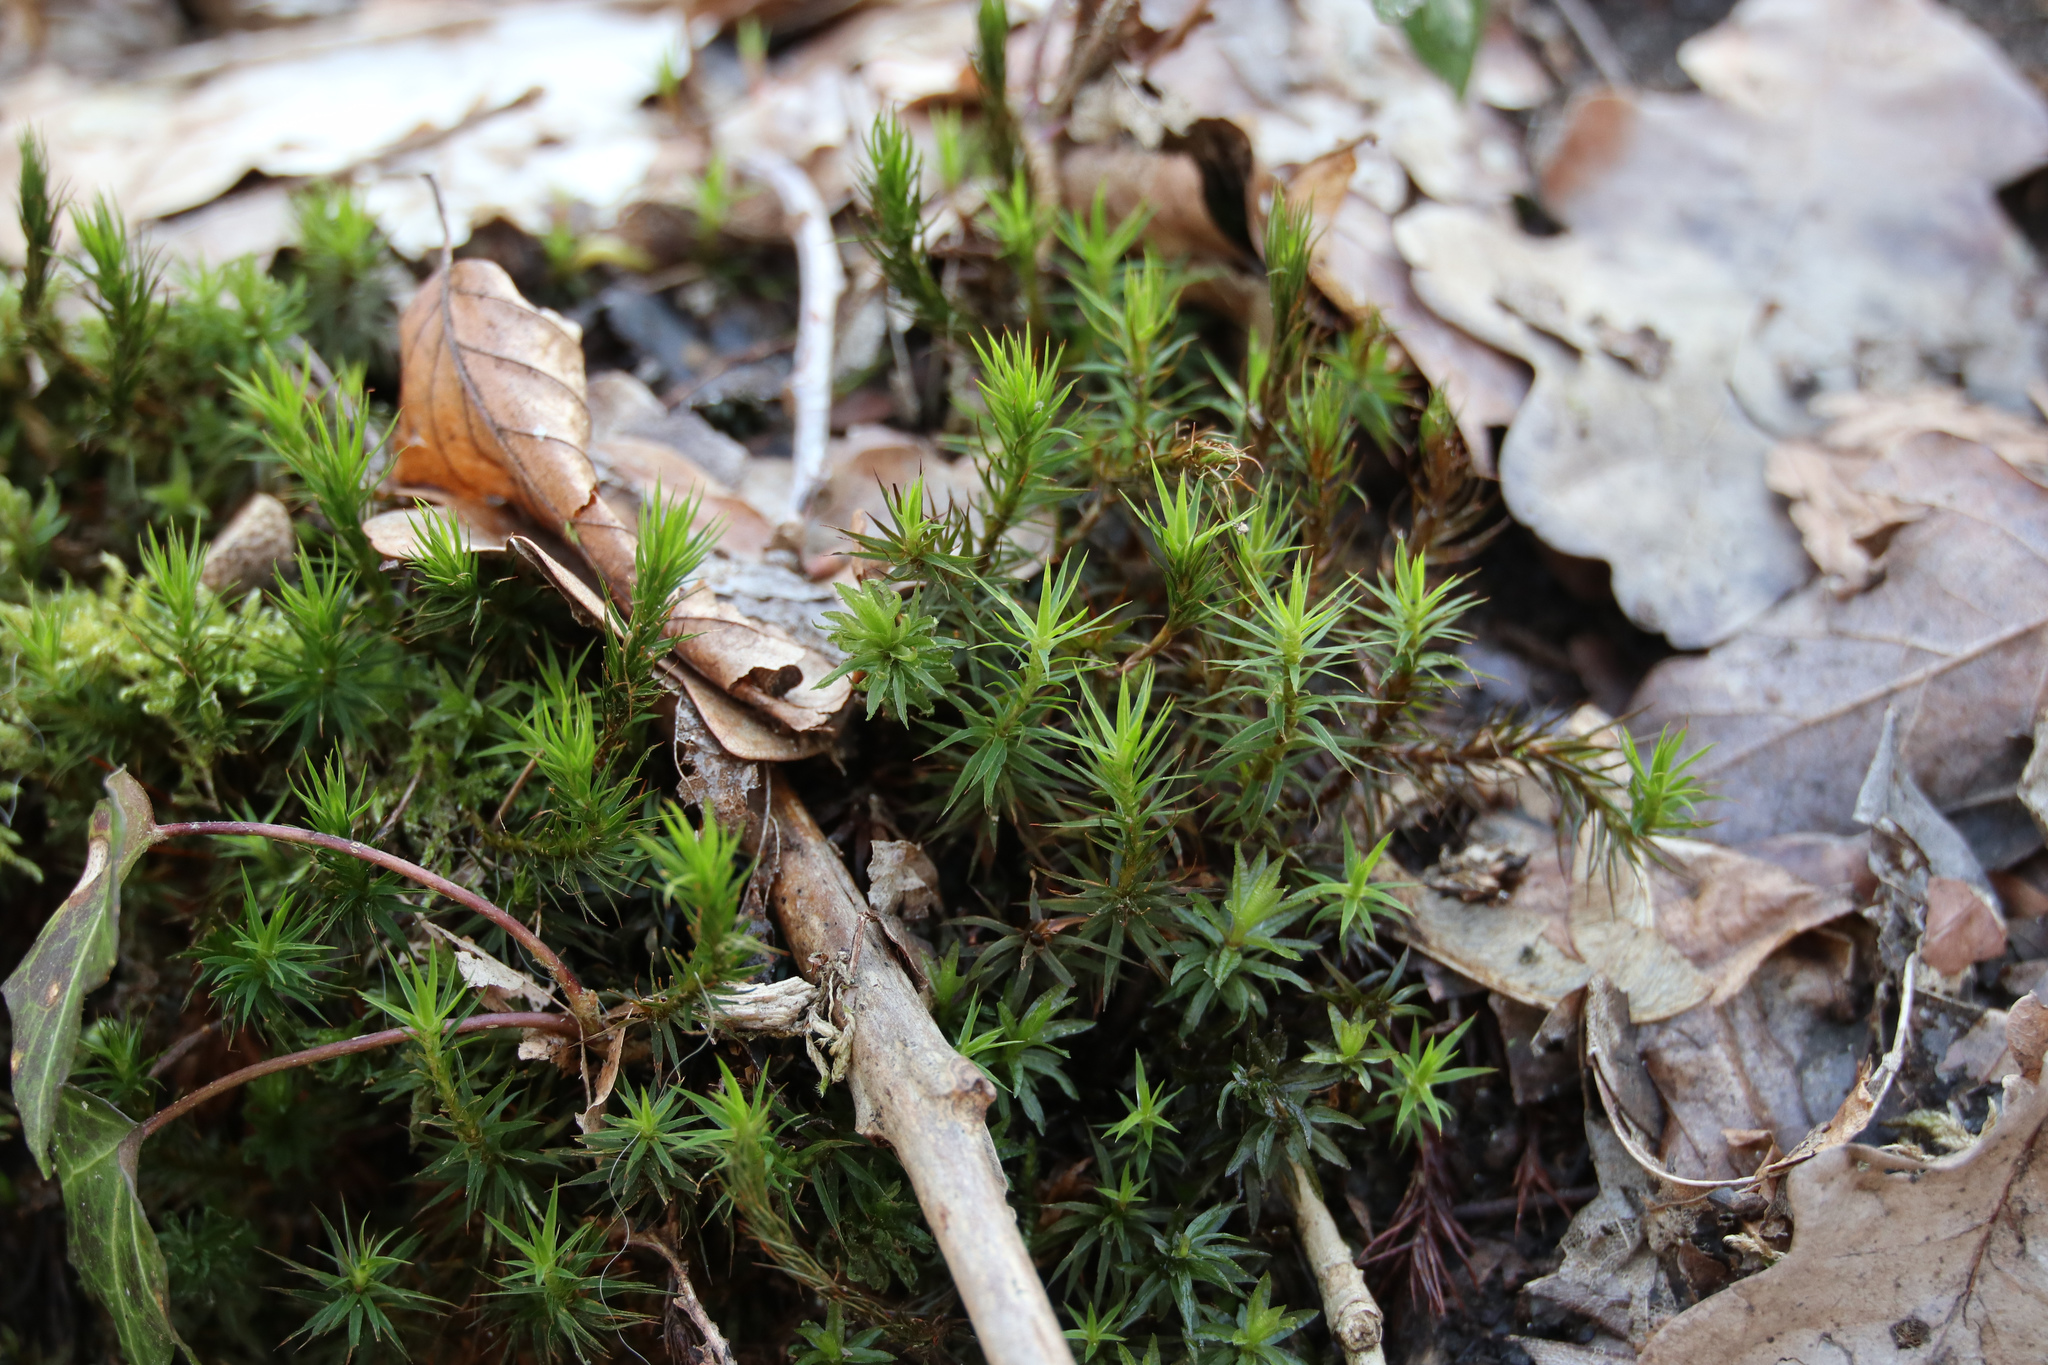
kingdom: Plantae
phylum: Bryophyta
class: Polytrichopsida
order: Polytrichales
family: Polytrichaceae
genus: Polytrichum
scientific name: Polytrichum formosum
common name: Bank haircap moss
